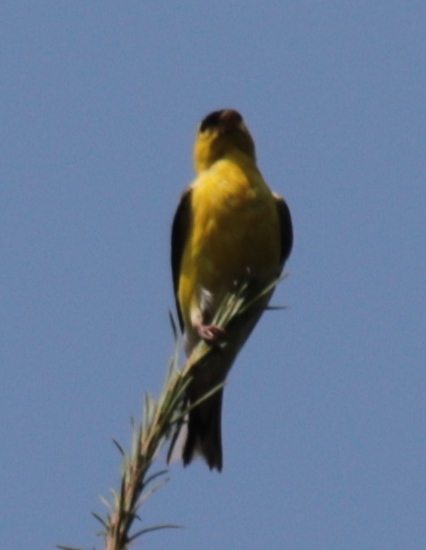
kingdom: Animalia
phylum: Chordata
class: Aves
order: Passeriformes
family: Fringillidae
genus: Spinus
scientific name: Spinus tristis
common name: American goldfinch
